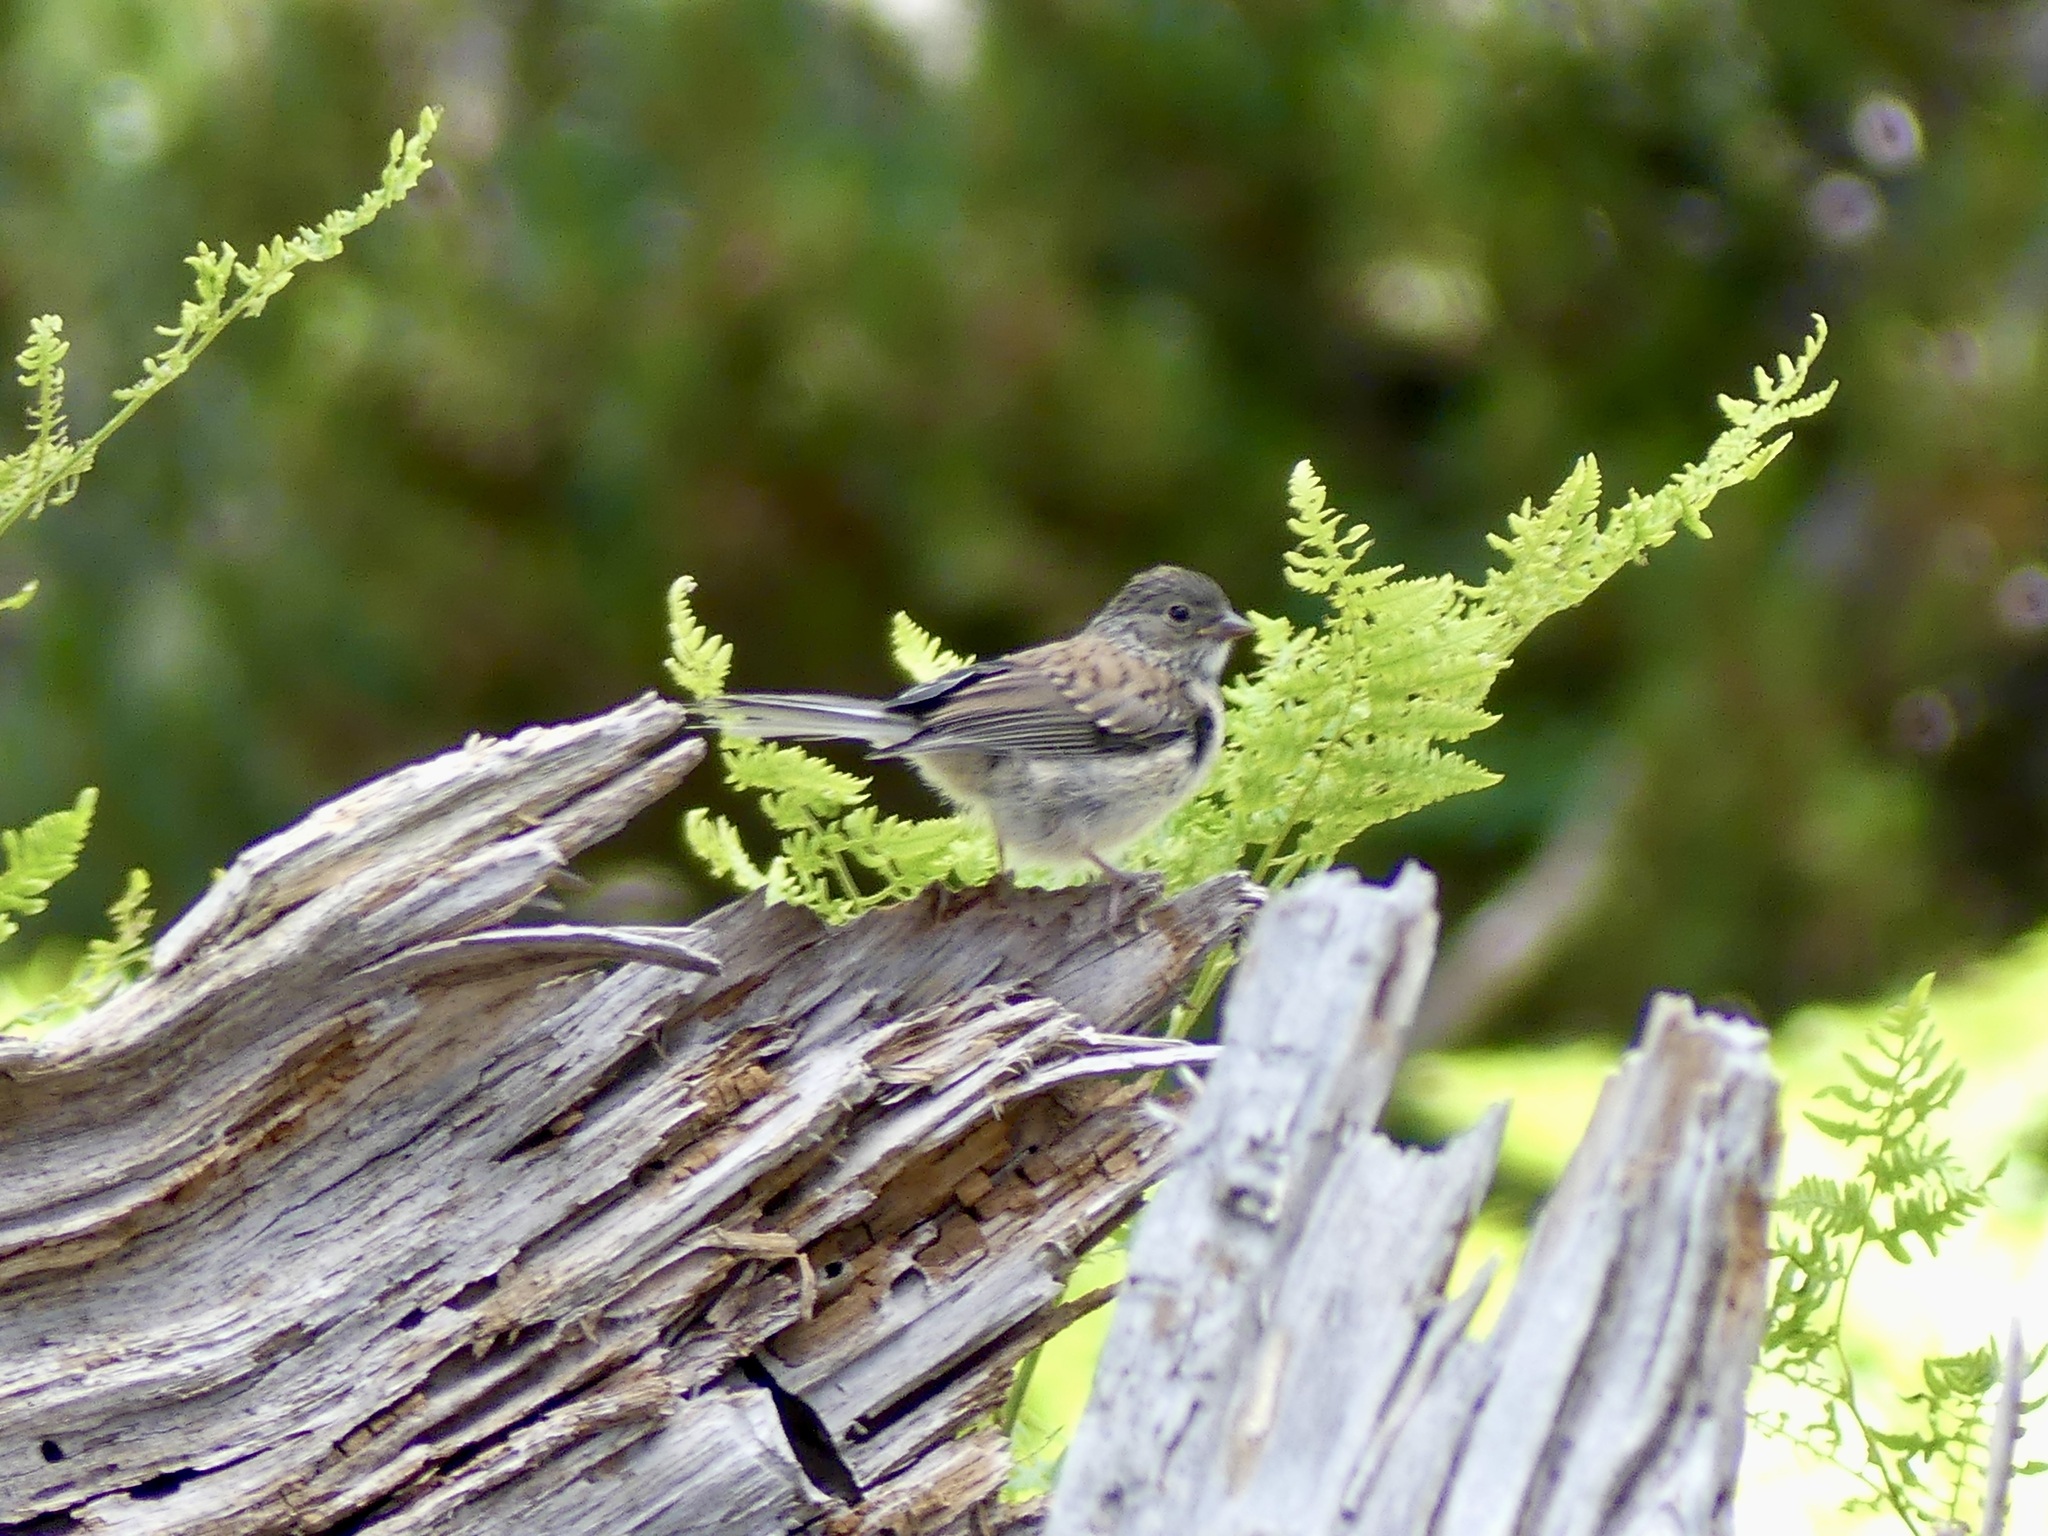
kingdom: Animalia
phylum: Chordata
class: Aves
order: Passeriformes
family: Passerellidae
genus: Junco
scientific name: Junco hyemalis
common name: Dark-eyed junco
